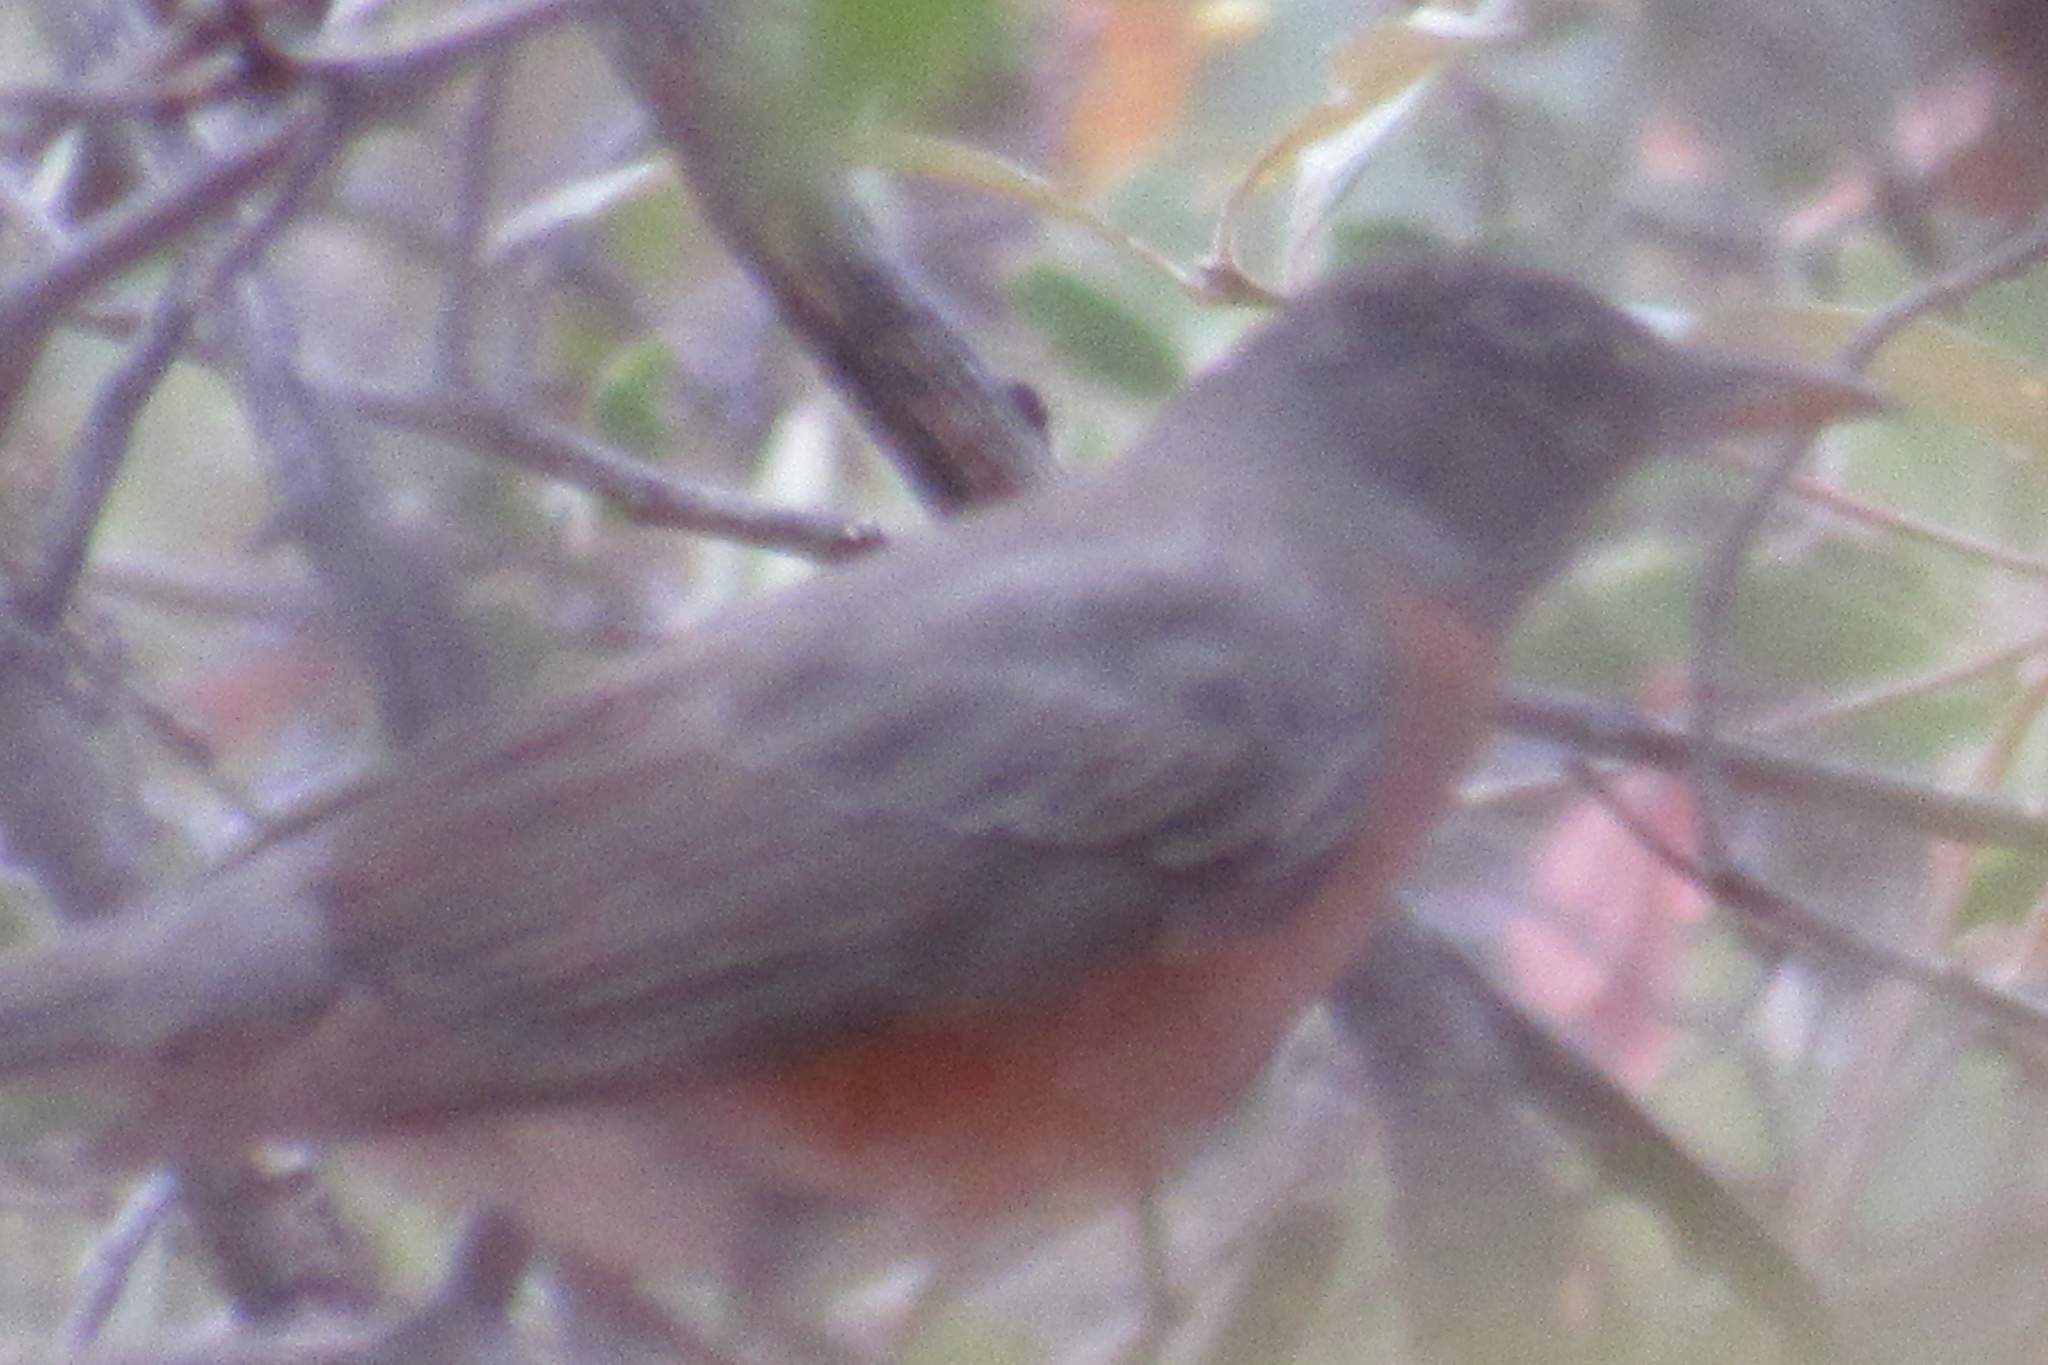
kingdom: Animalia
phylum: Chordata
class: Aves
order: Passeriformes
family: Turdidae
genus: Turdus
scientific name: Turdus migratorius
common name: American robin
